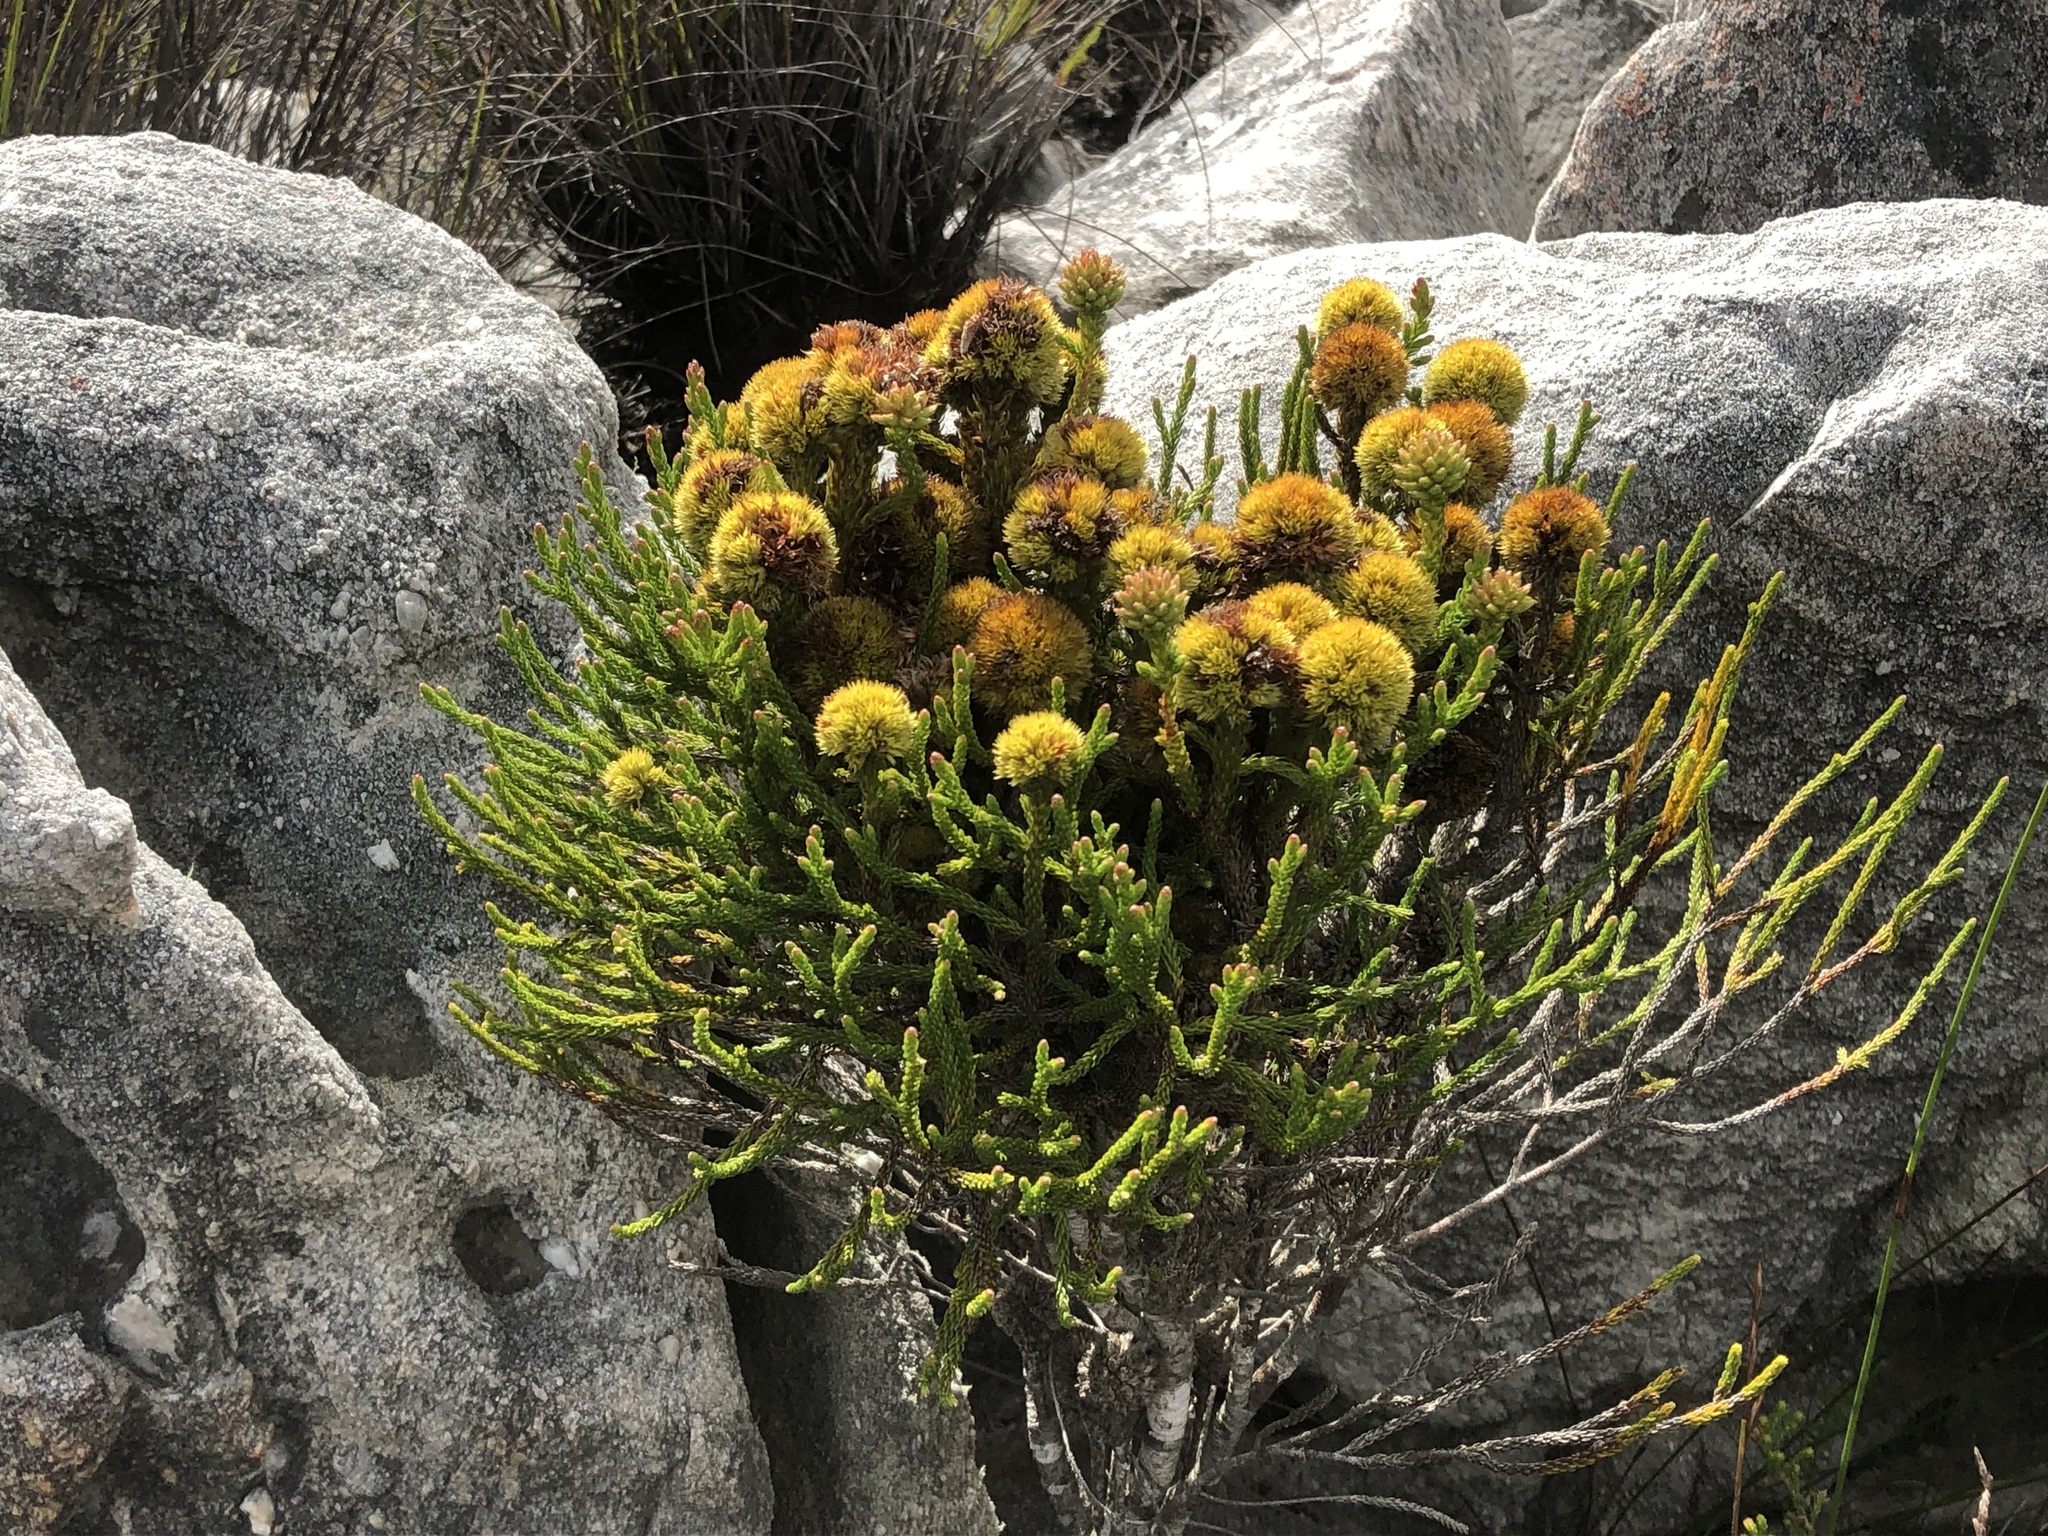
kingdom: Plantae
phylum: Tracheophyta
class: Magnoliopsida
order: Bruniales
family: Bruniaceae
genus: Brunia
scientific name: Brunia fragarioides
